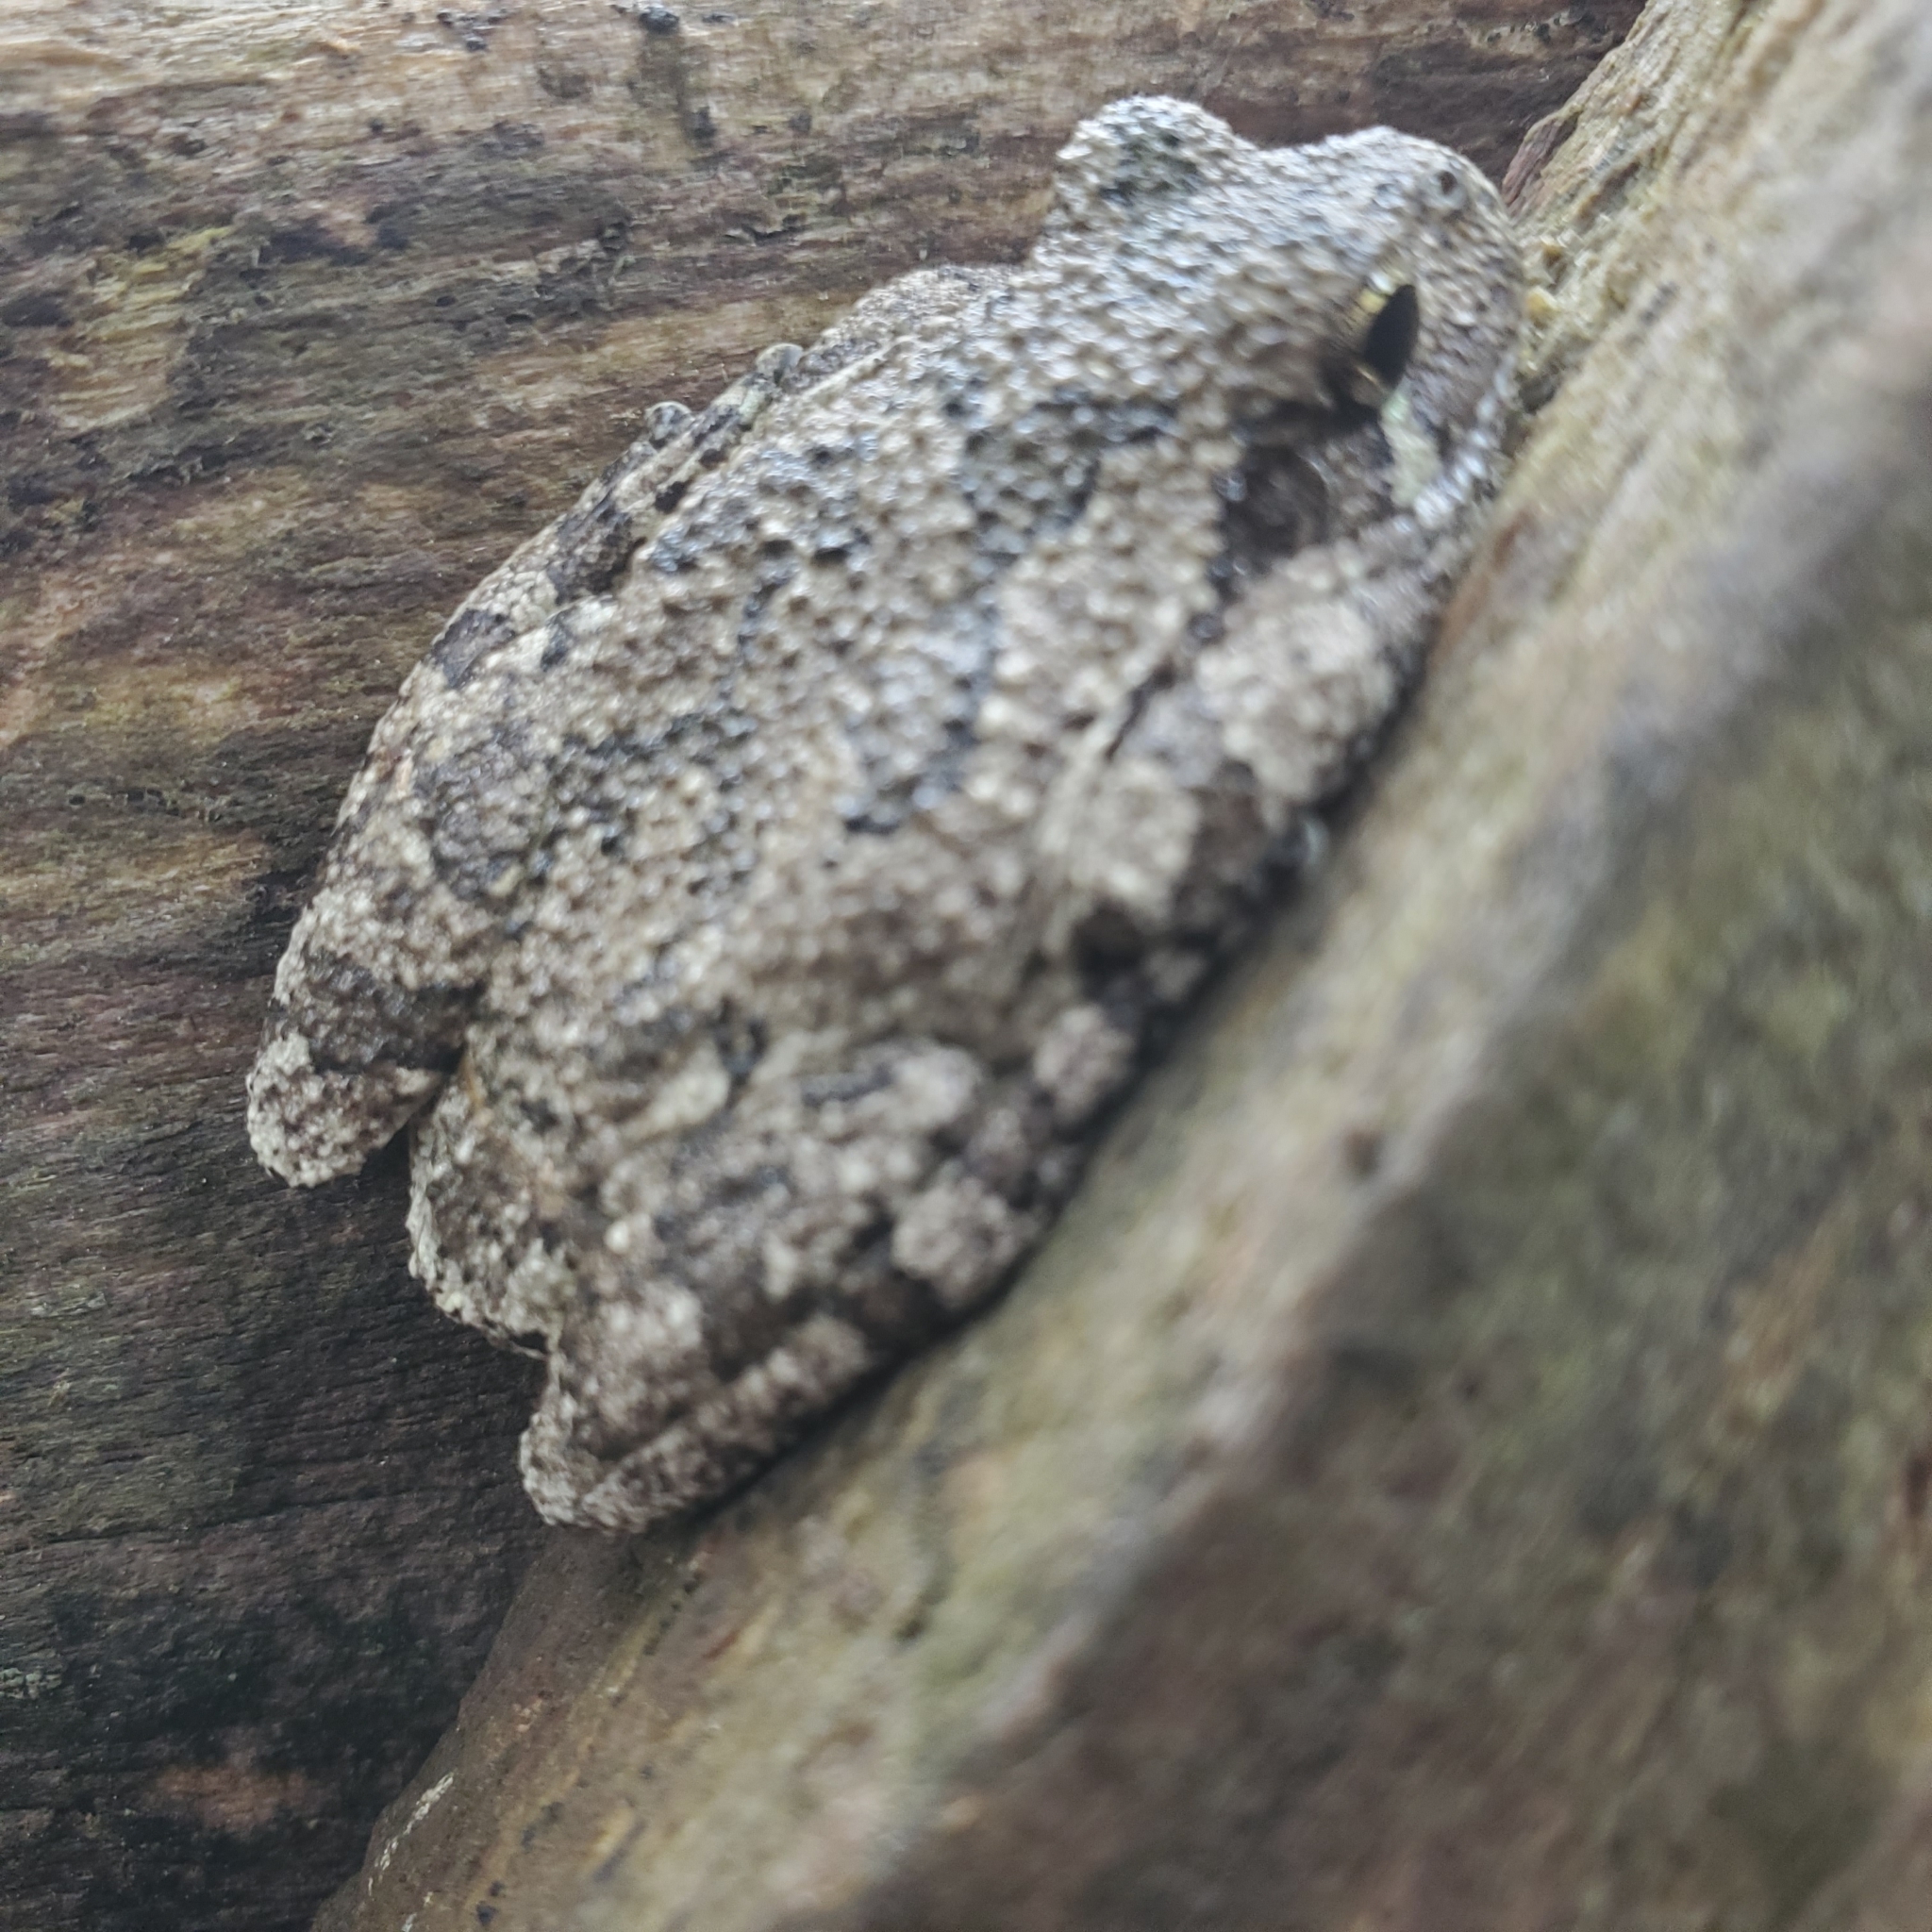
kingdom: Animalia
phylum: Chordata
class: Amphibia
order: Anura
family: Hylidae
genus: Dryophytes
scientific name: Dryophytes chrysoscelis
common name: Cope's gray treefrog
